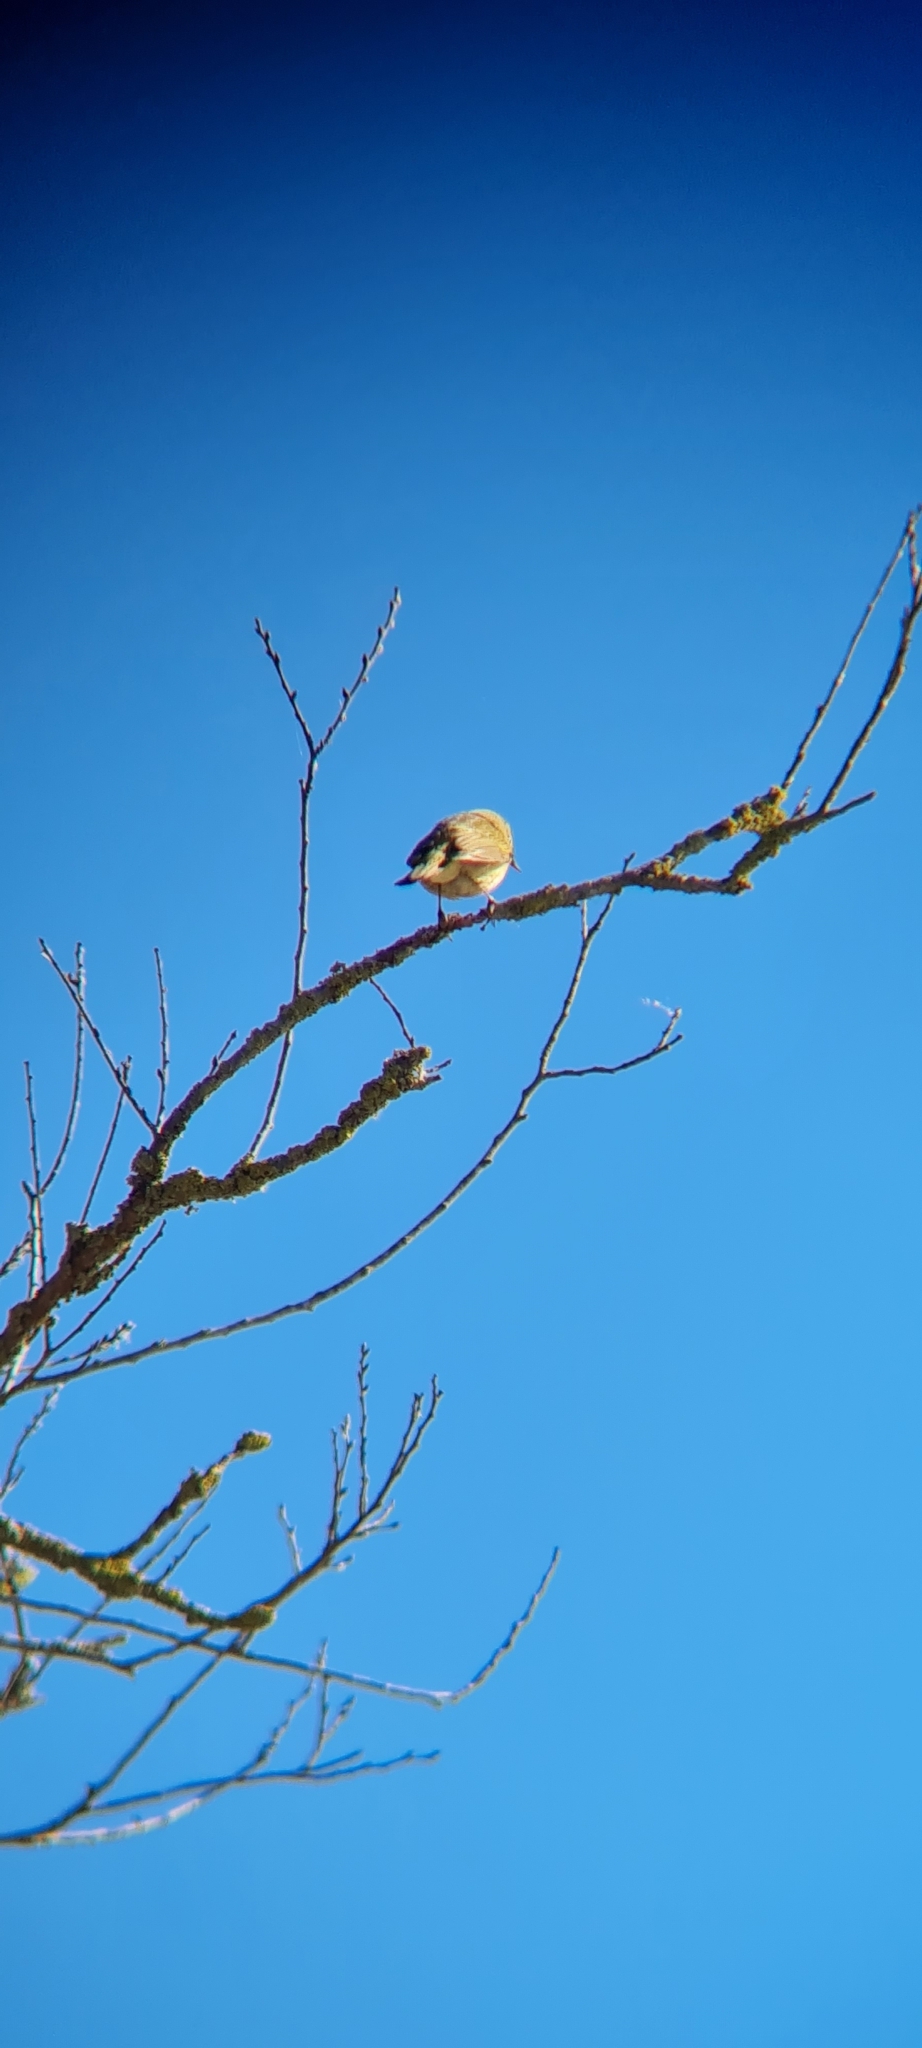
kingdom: Animalia
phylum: Chordata
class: Aves
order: Passeriformes
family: Phylloscopidae
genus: Phylloscopus
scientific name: Phylloscopus collybita
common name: Common chiffchaff
